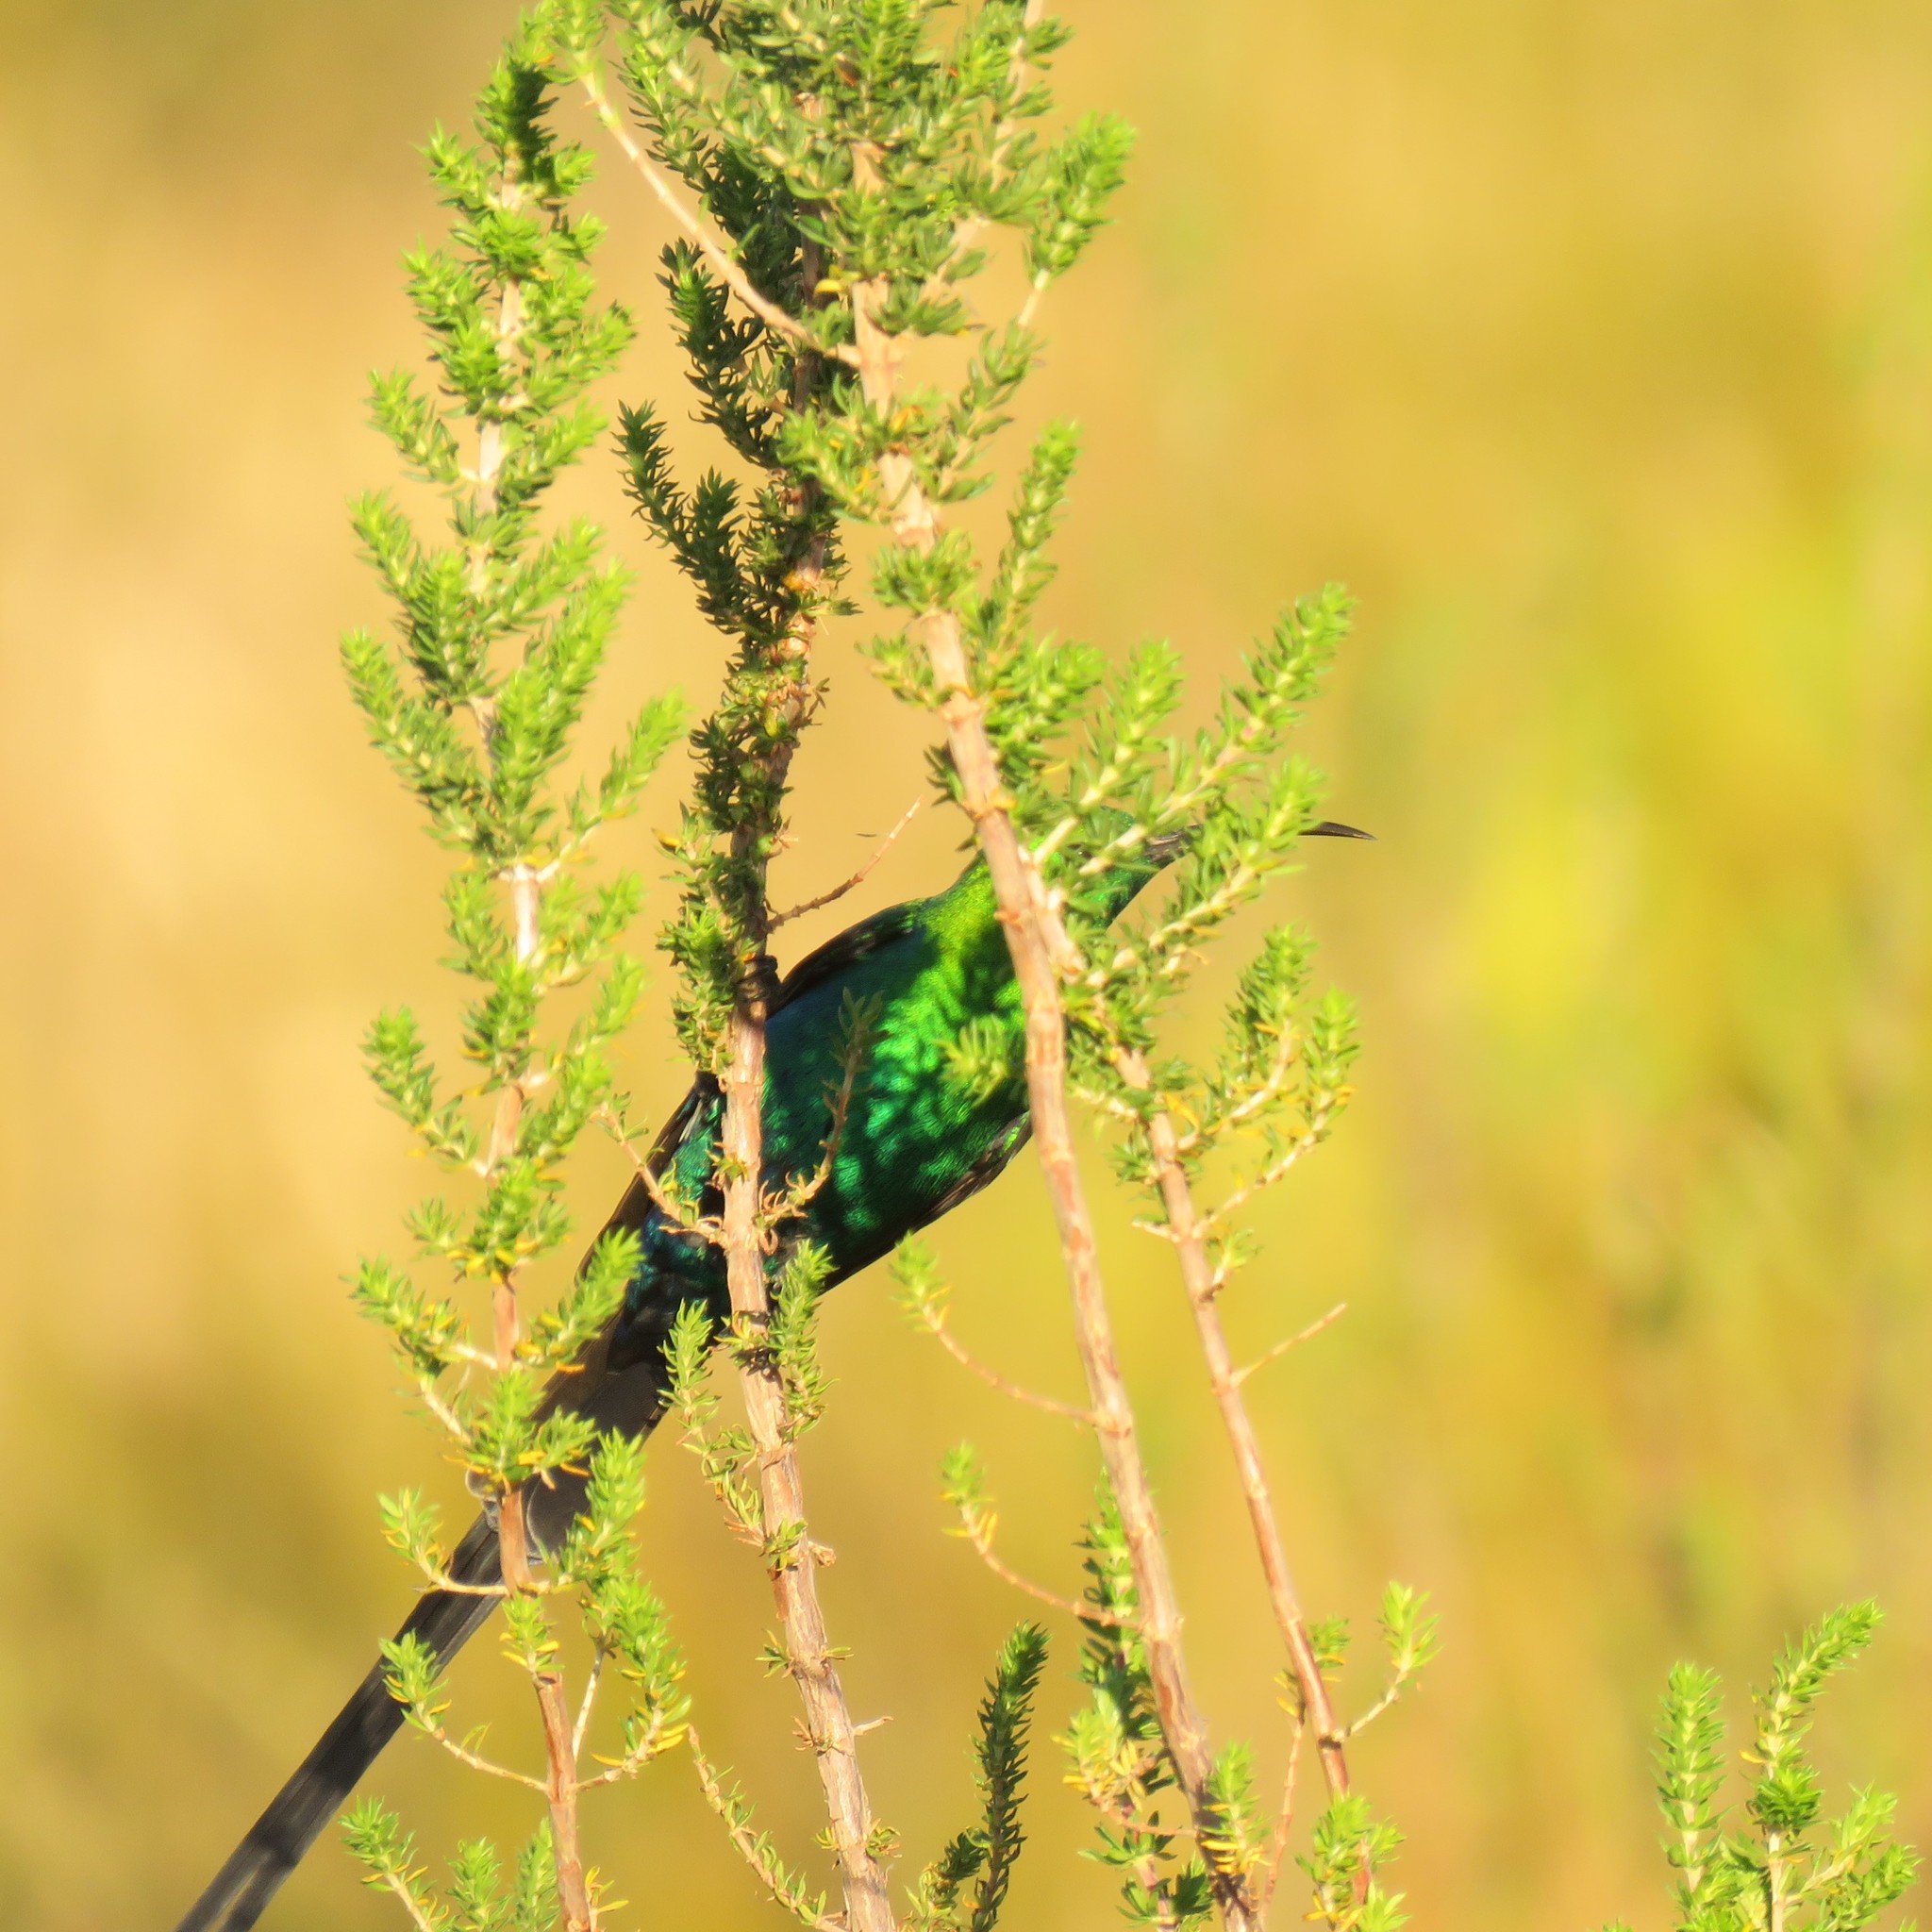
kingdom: Animalia
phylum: Chordata
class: Aves
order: Passeriformes
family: Nectariniidae
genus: Nectarinia
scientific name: Nectarinia famosa
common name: Malachite sunbird
